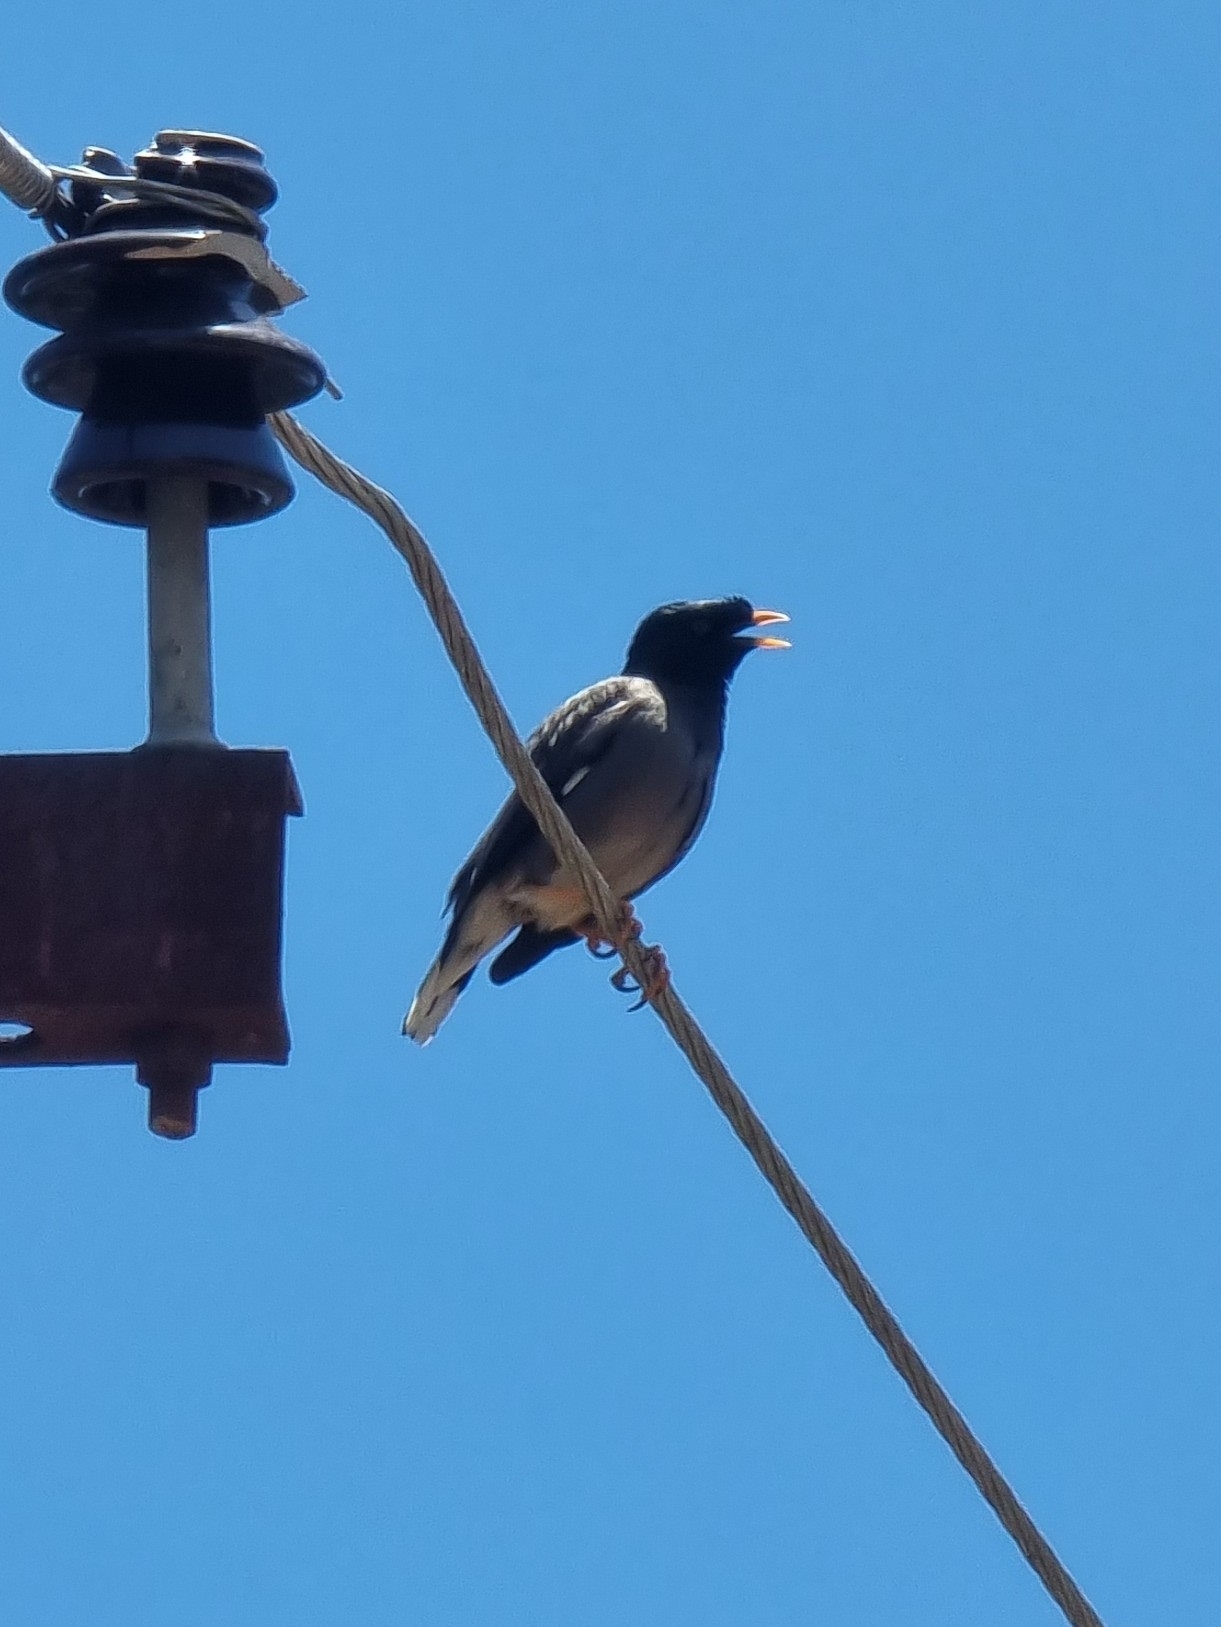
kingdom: Animalia
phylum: Chordata
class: Aves
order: Passeriformes
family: Sturnidae
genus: Acridotheres
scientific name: Acridotheres fuscus
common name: Jungle myna
